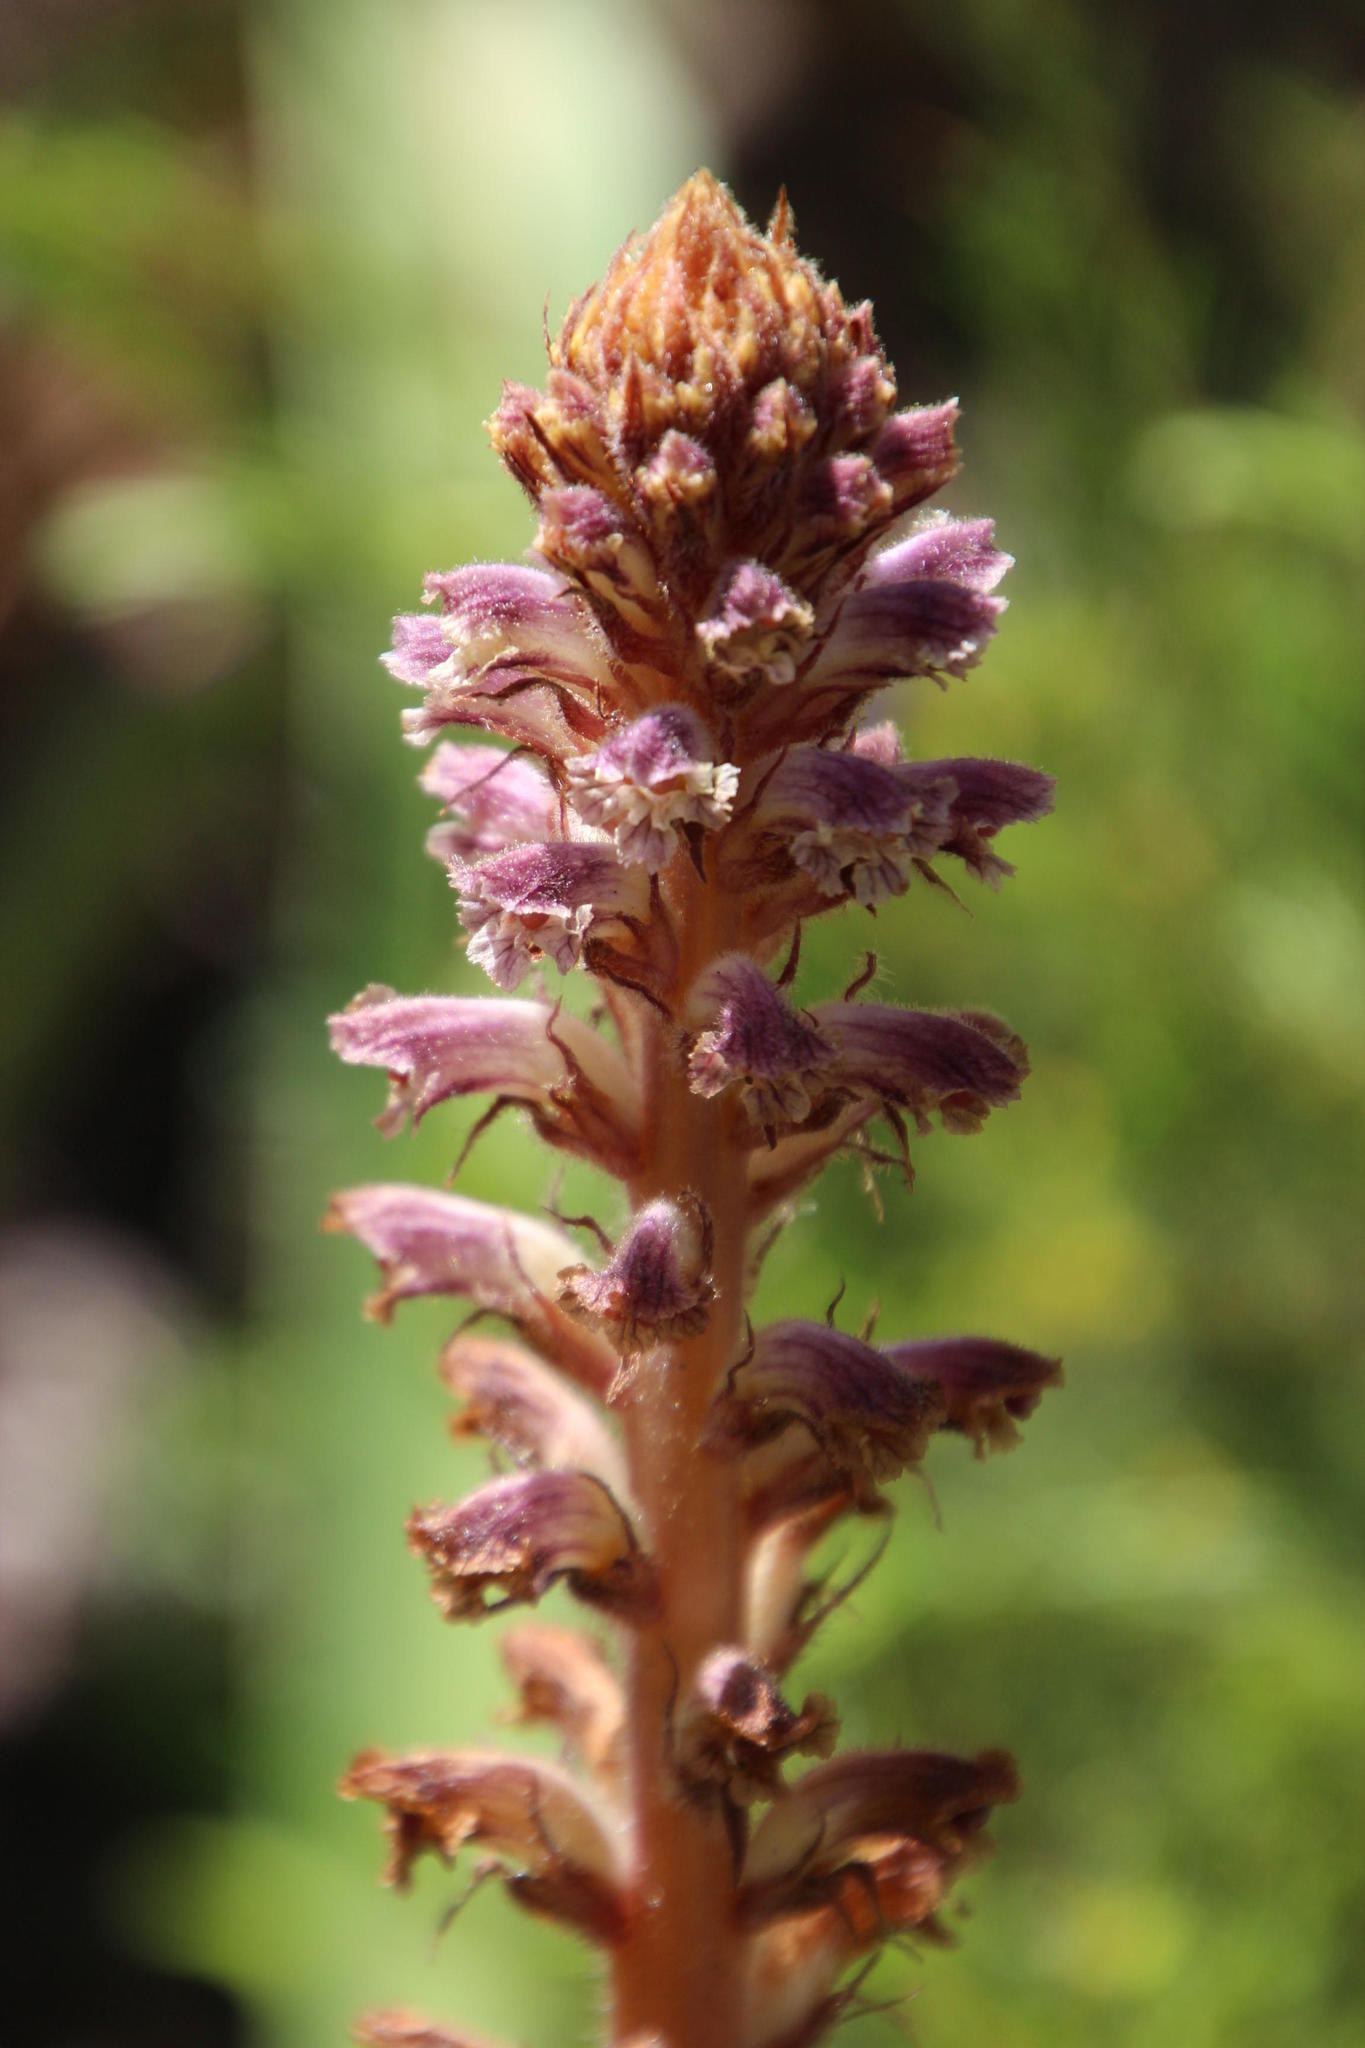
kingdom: Plantae
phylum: Tracheophyta
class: Magnoliopsida
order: Lamiales
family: Orobanchaceae
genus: Orobanche
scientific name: Orobanche minor
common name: Common broomrape
